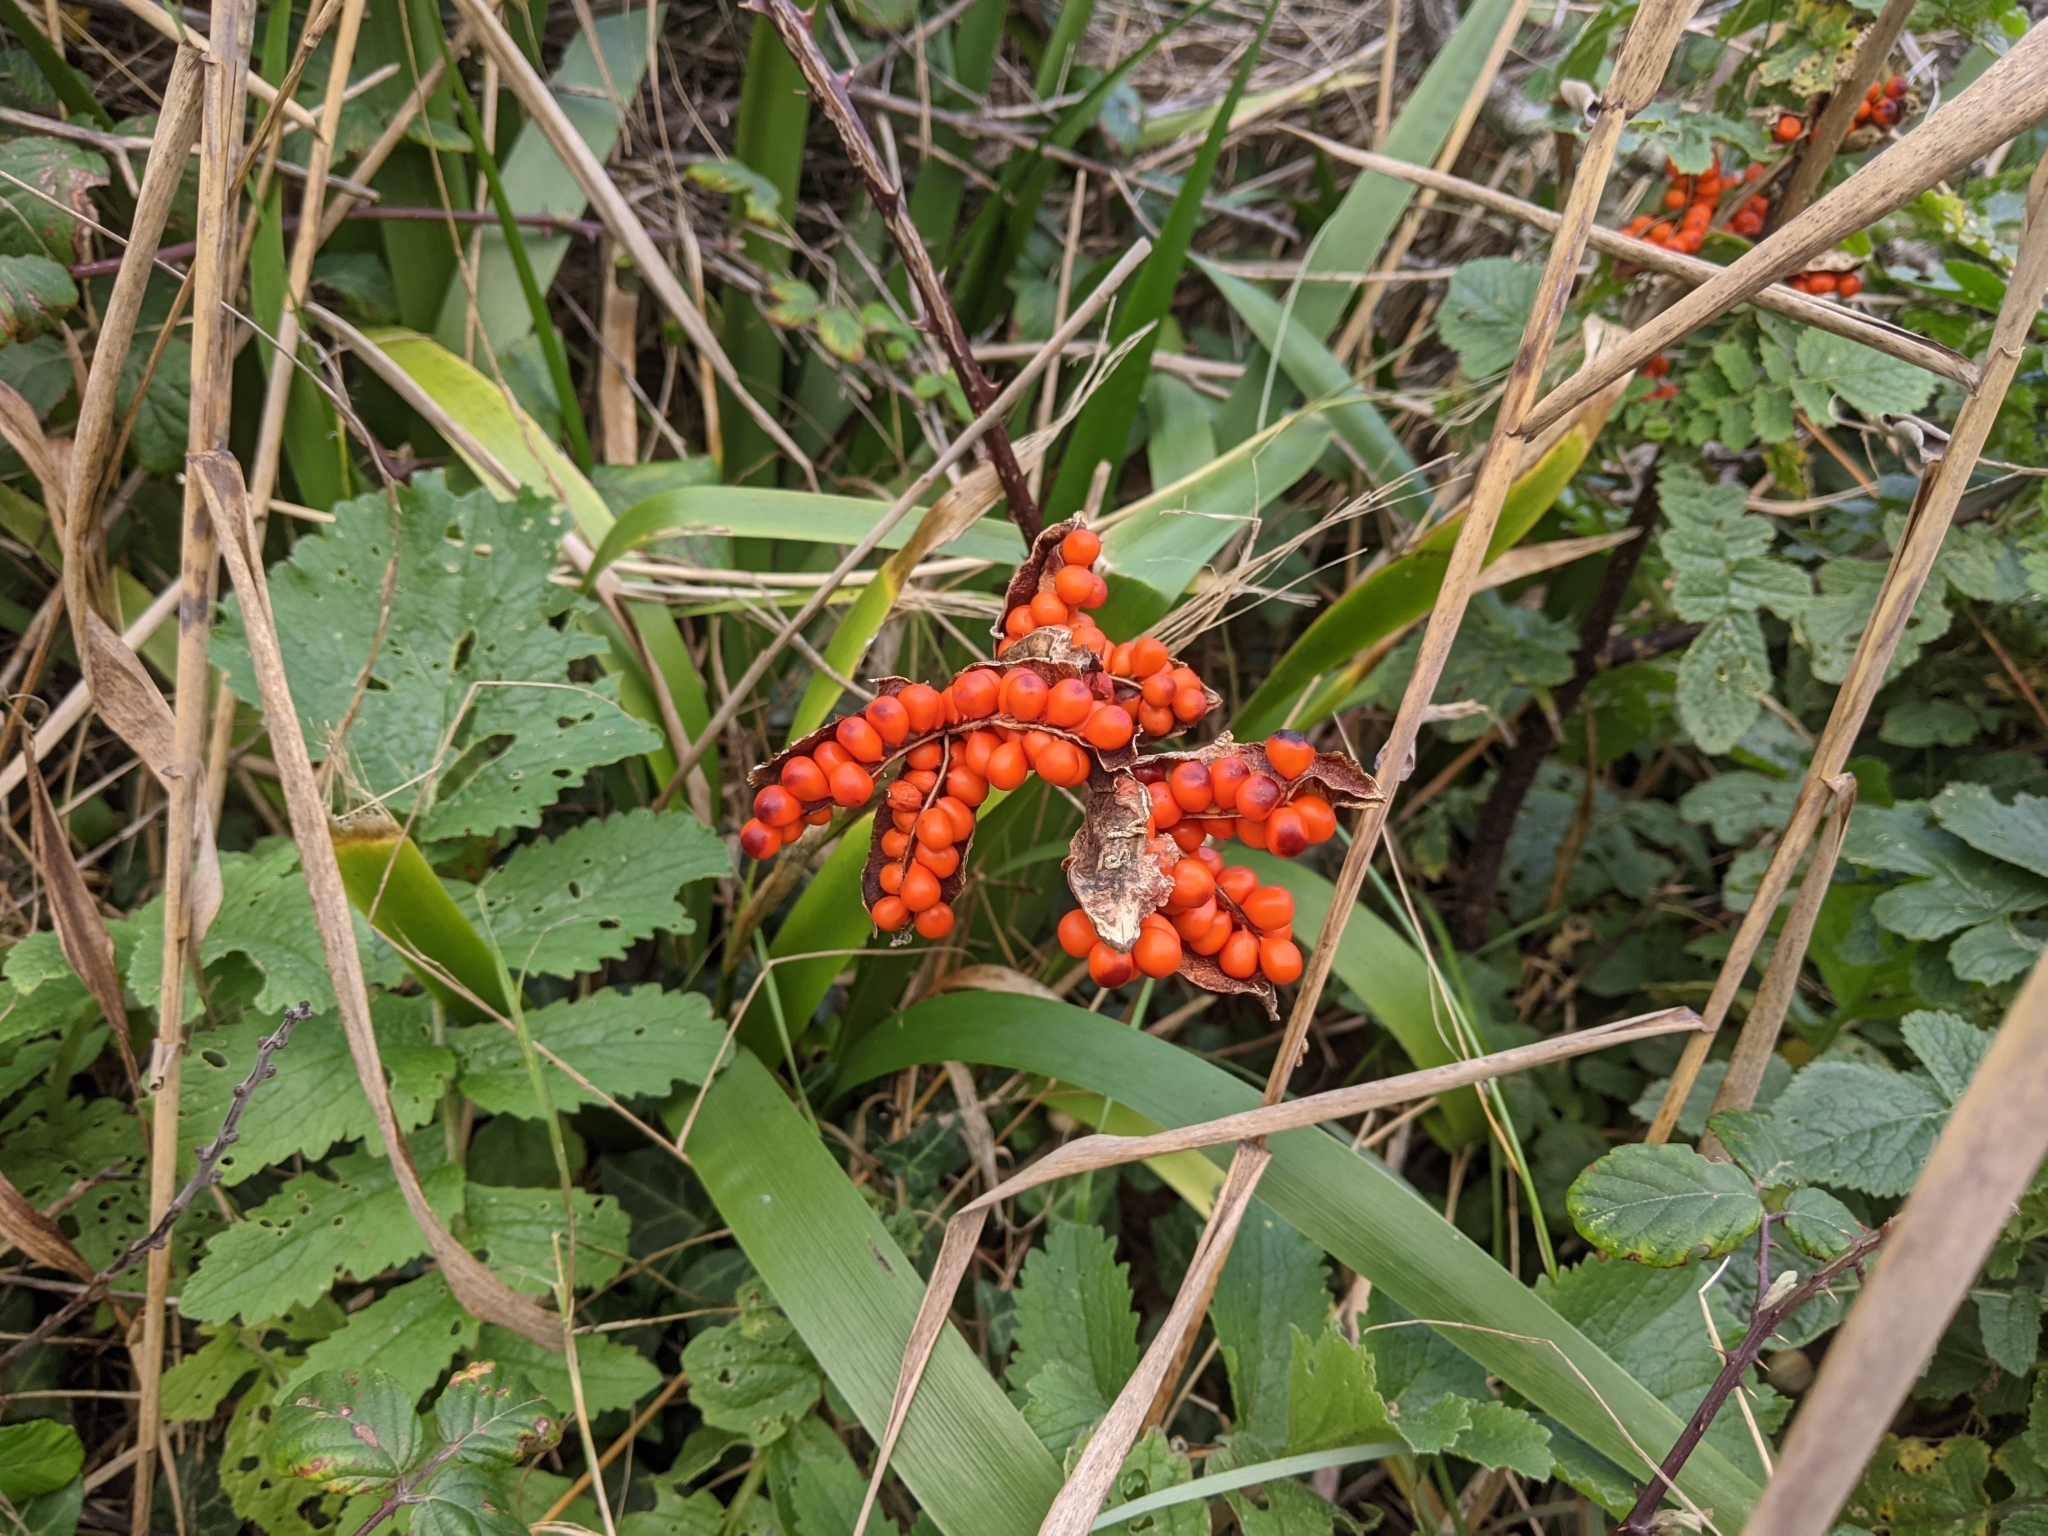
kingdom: Plantae
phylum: Tracheophyta
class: Liliopsida
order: Asparagales
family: Iridaceae
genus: Iris
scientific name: Iris foetidissima
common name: Stinking iris
